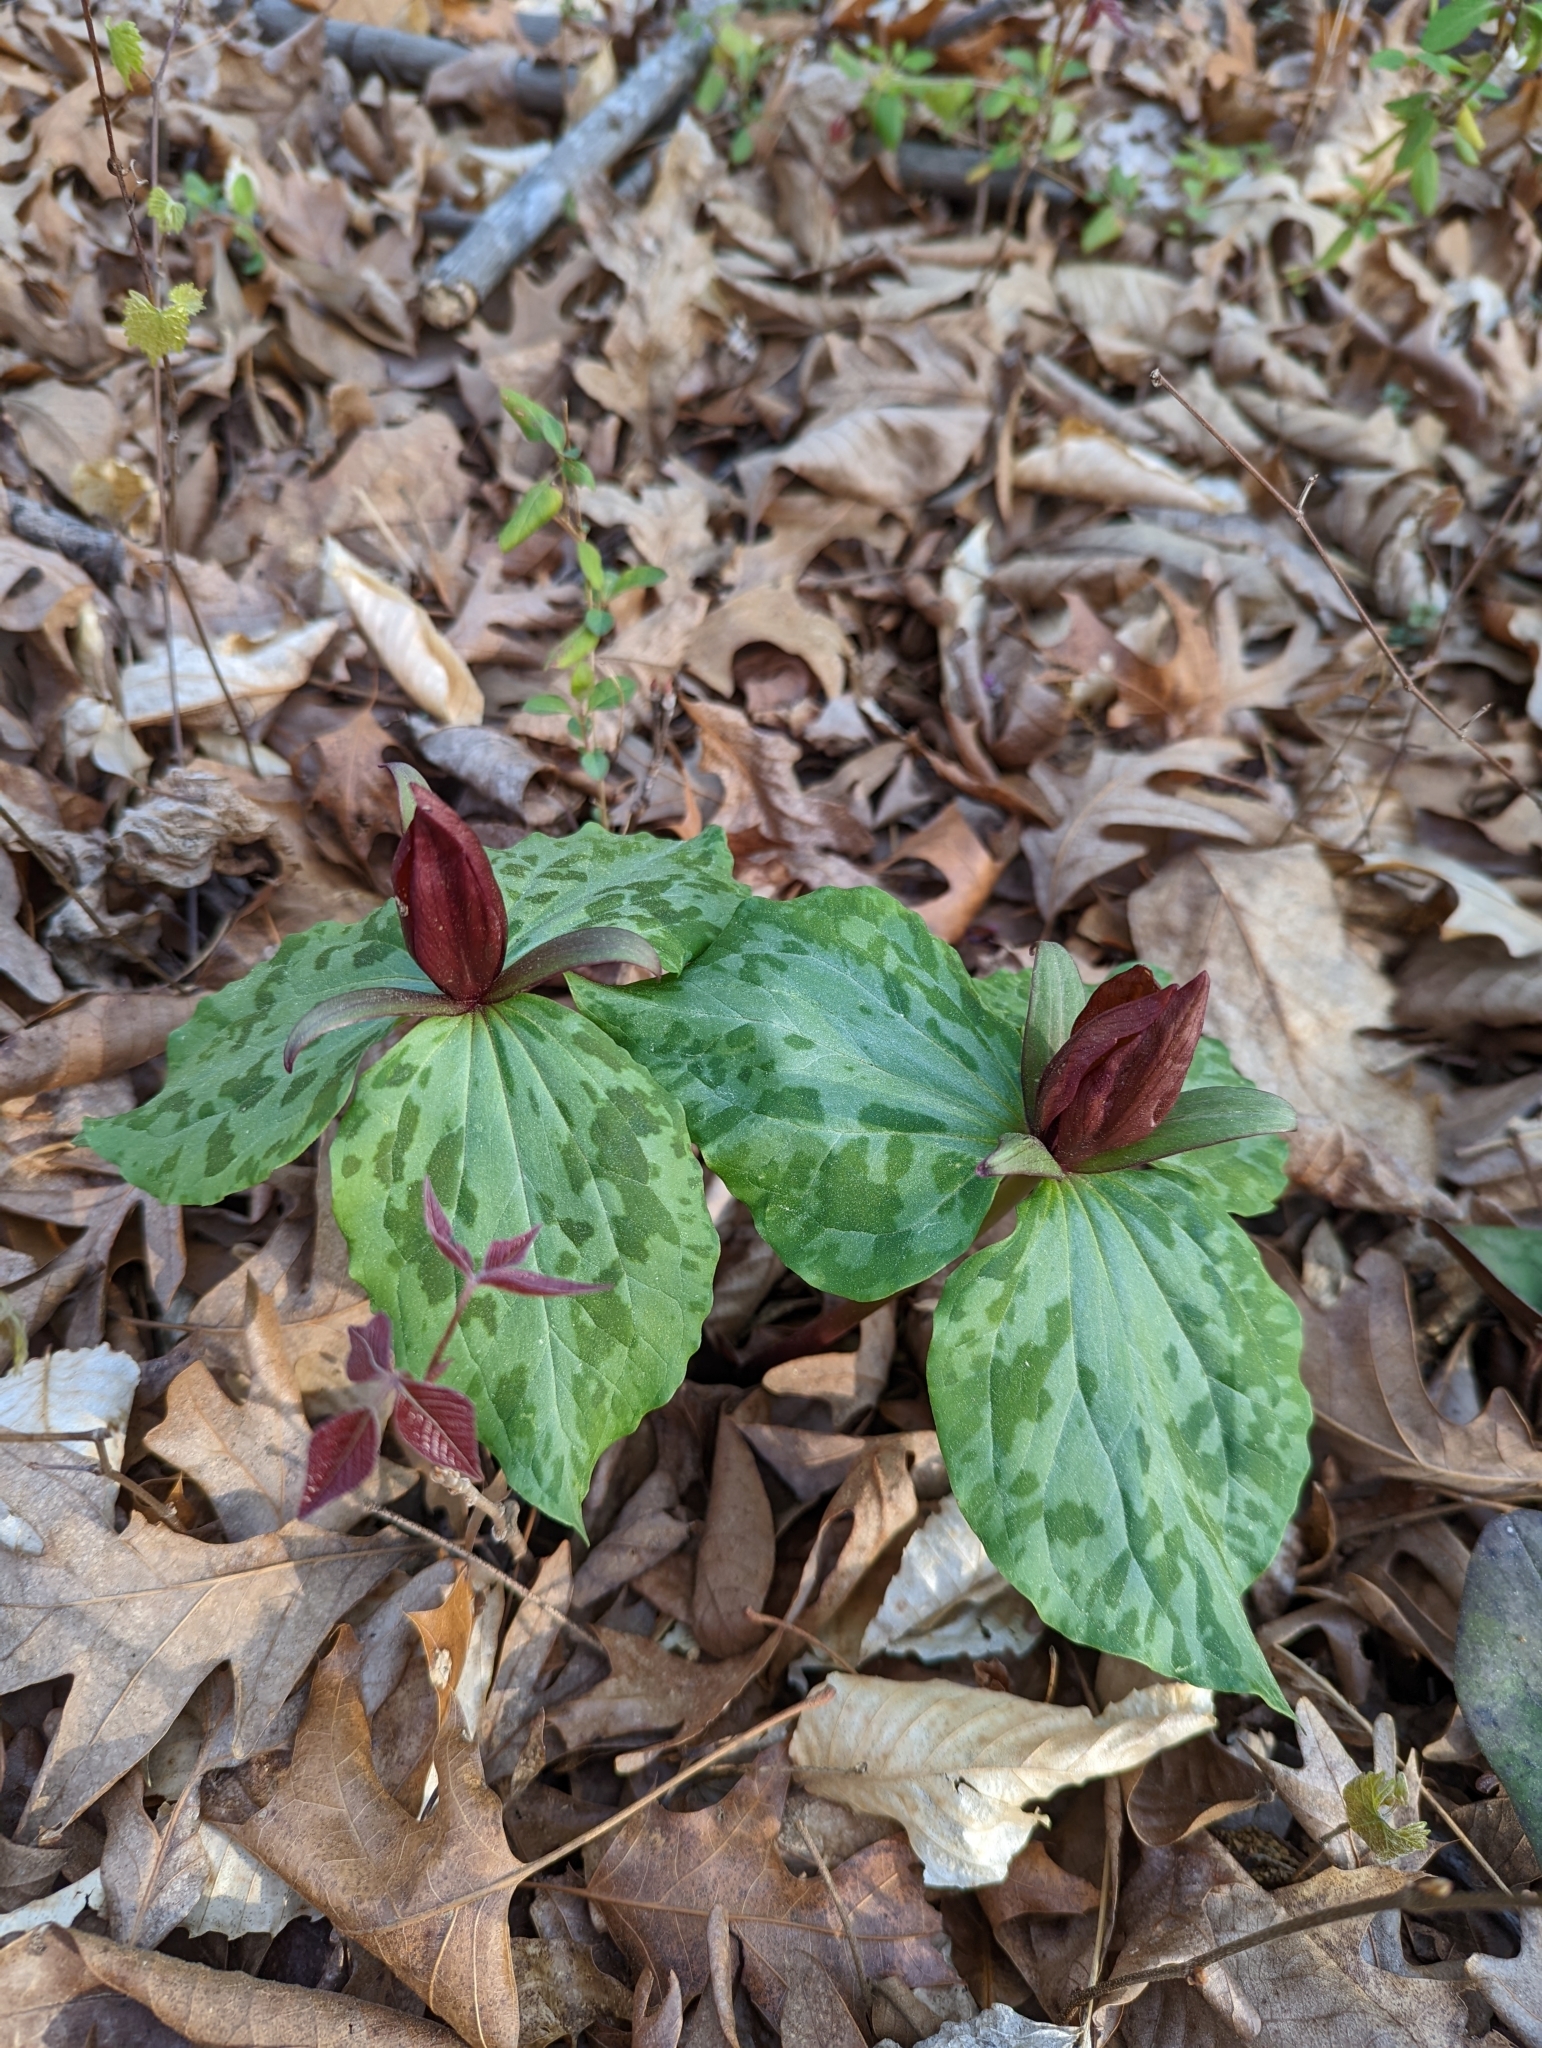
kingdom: Plantae
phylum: Tracheophyta
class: Liliopsida
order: Liliales
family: Melanthiaceae
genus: Trillium
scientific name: Trillium cuneatum
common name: Cuneate trillium
